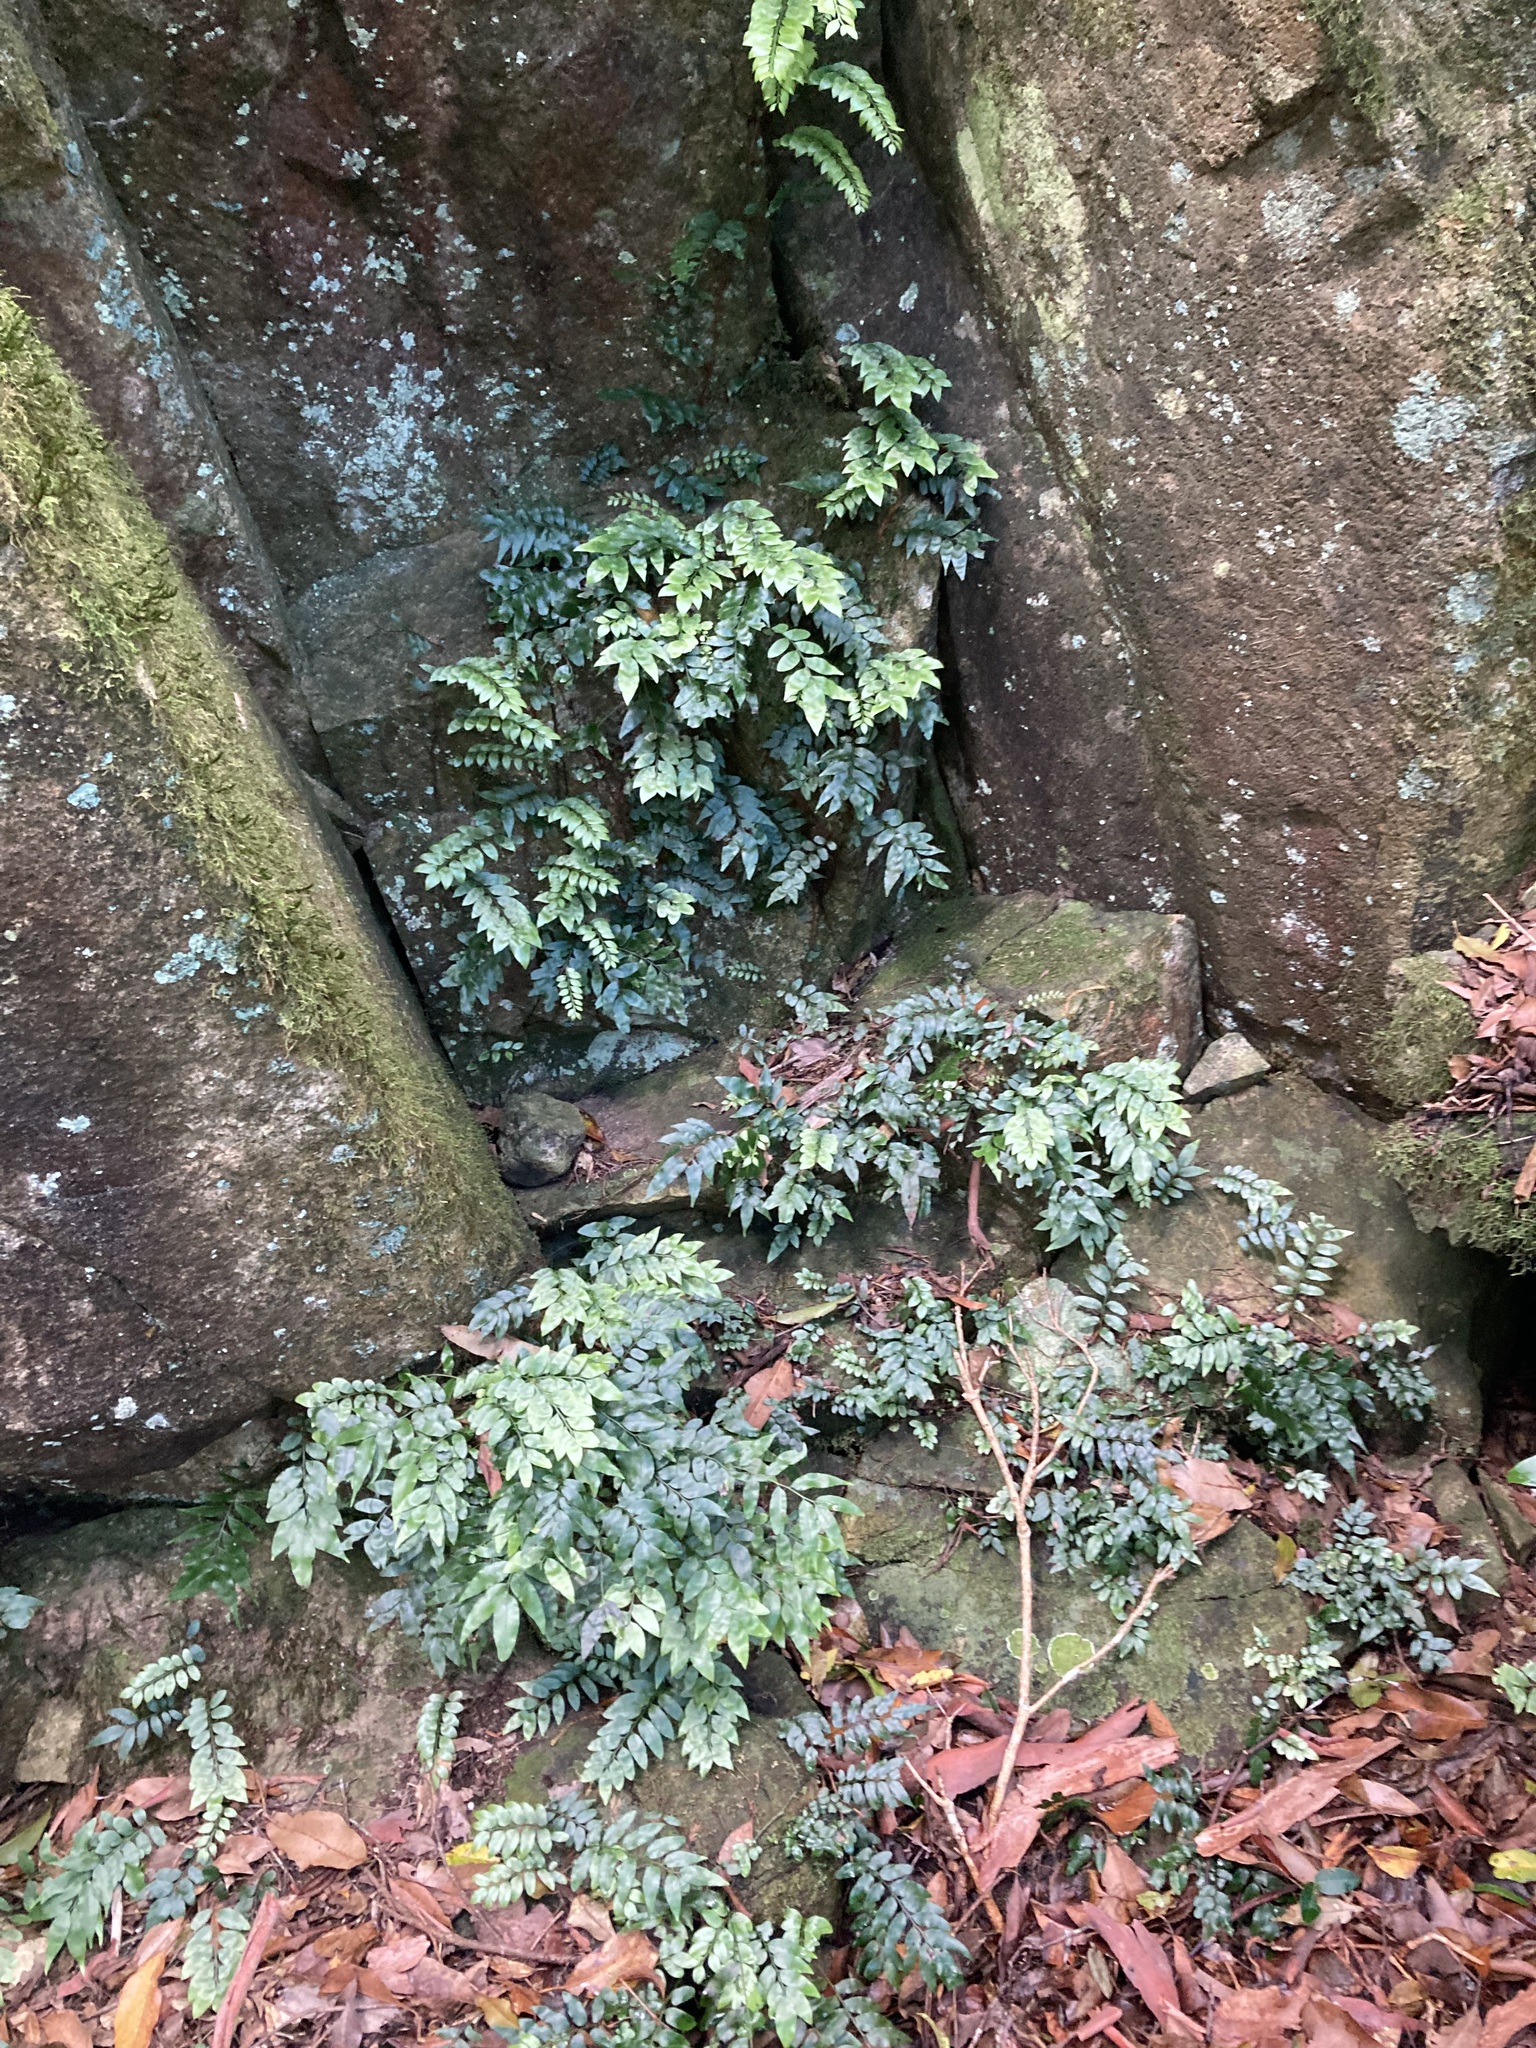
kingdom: Plantae
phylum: Tracheophyta
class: Polypodiopsida
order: Polypodiales
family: Tectariaceae
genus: Arthropteris
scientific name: Arthropteris tenella
